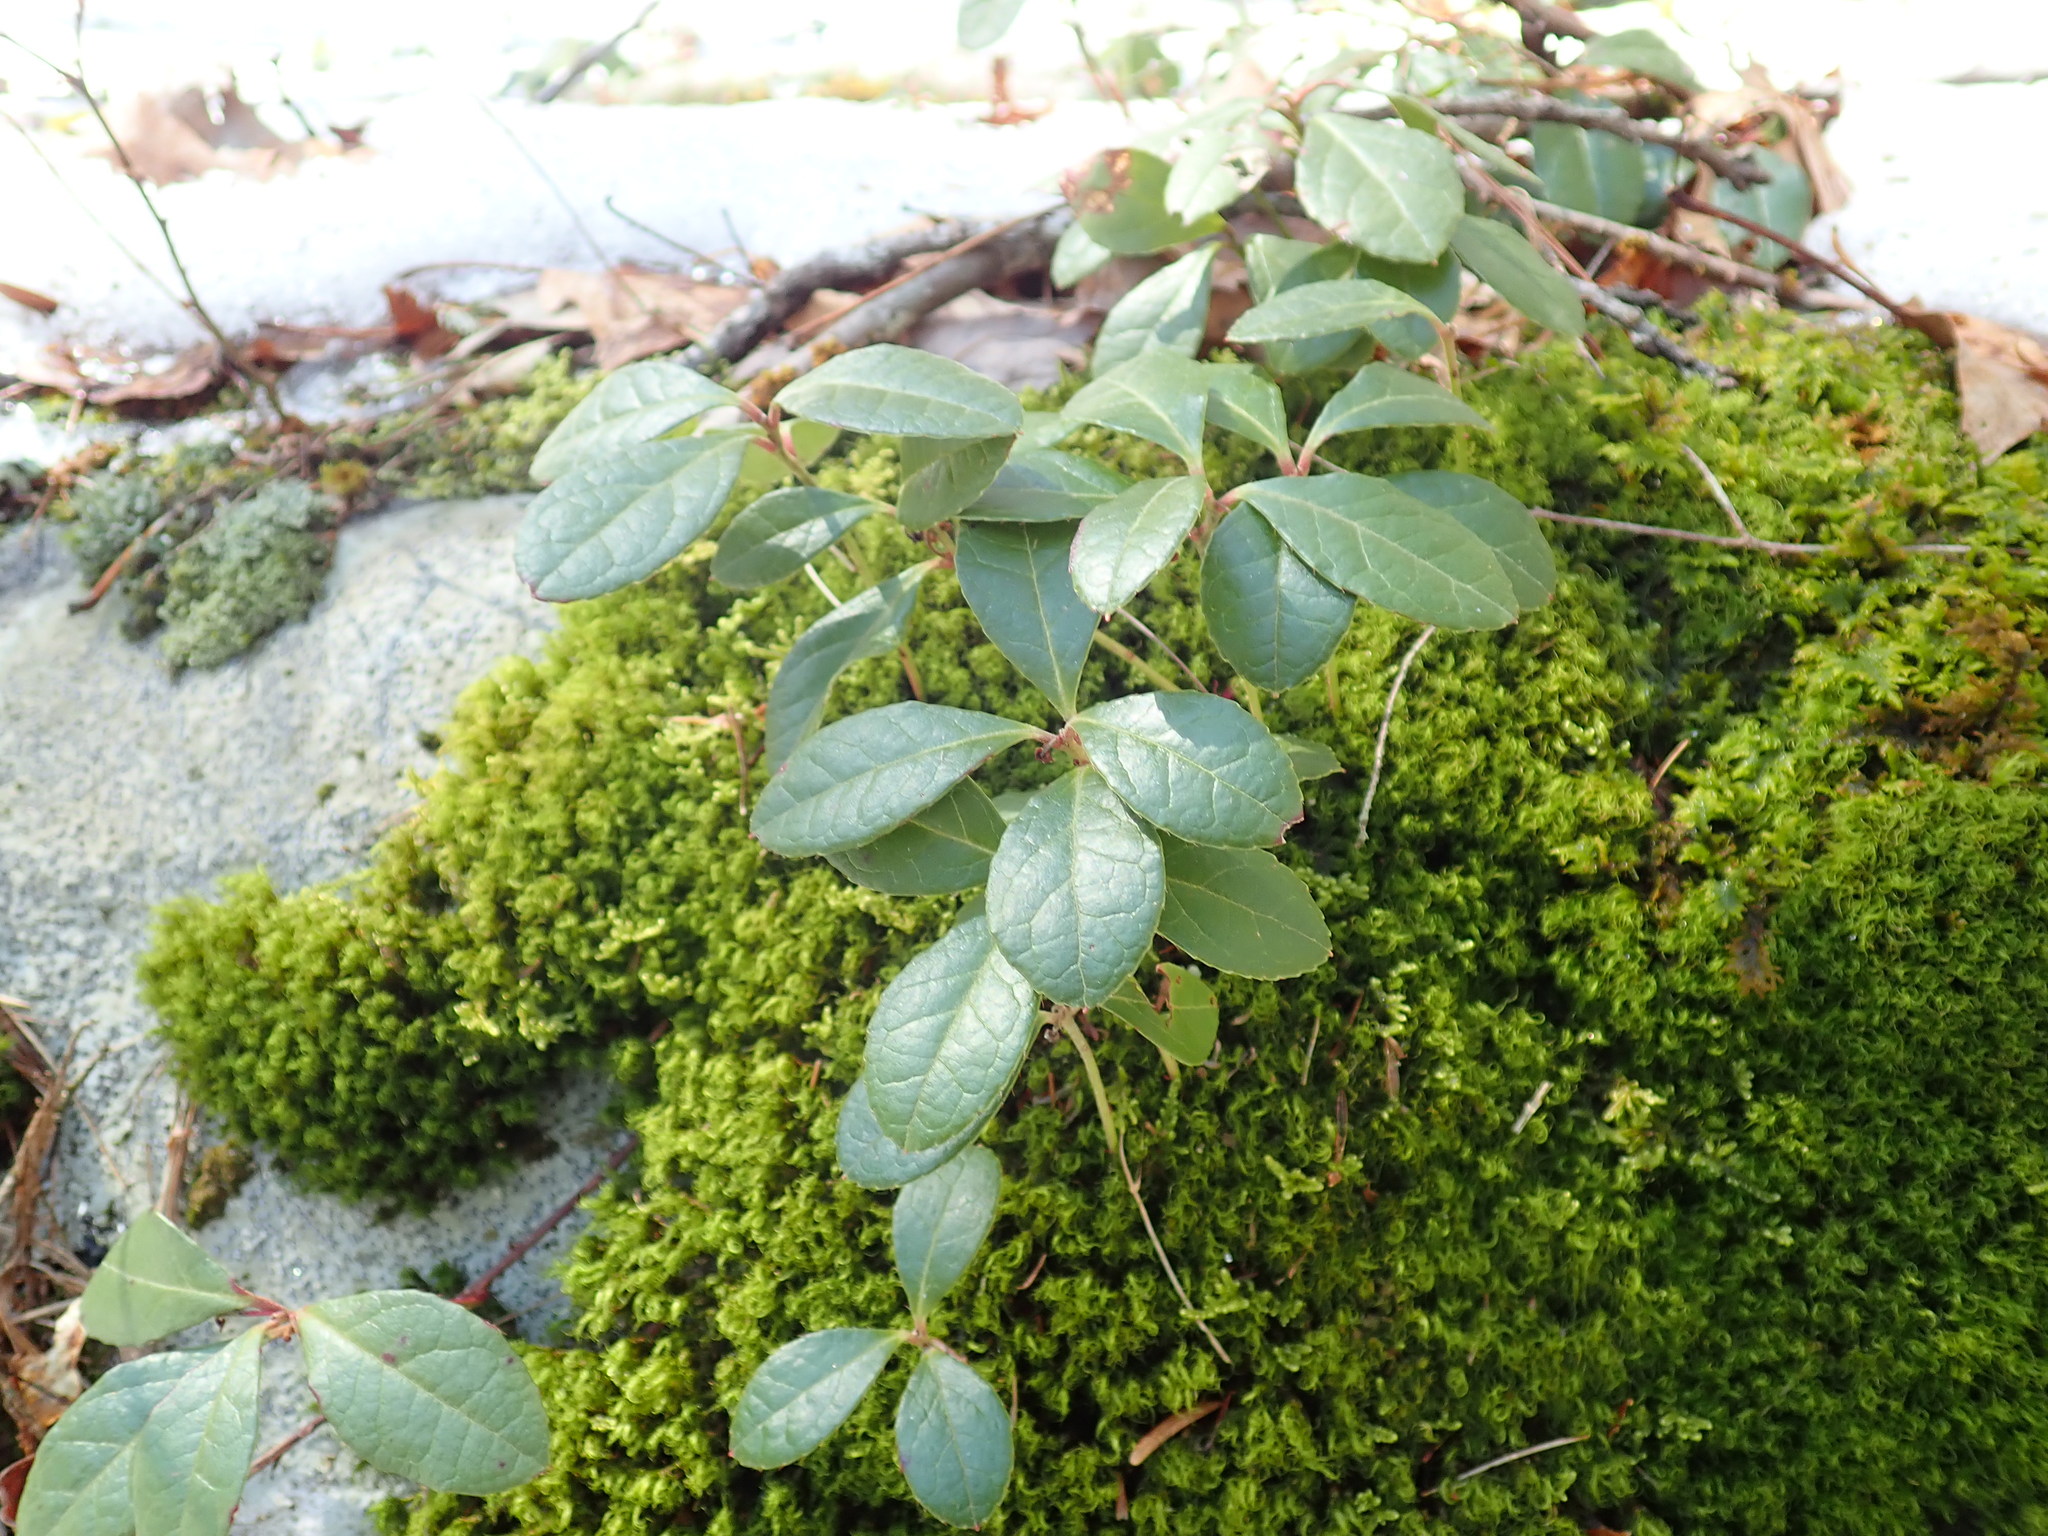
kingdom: Plantae
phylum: Tracheophyta
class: Magnoliopsida
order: Ericales
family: Ericaceae
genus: Gaultheria
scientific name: Gaultheria procumbens
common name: Checkerberry
